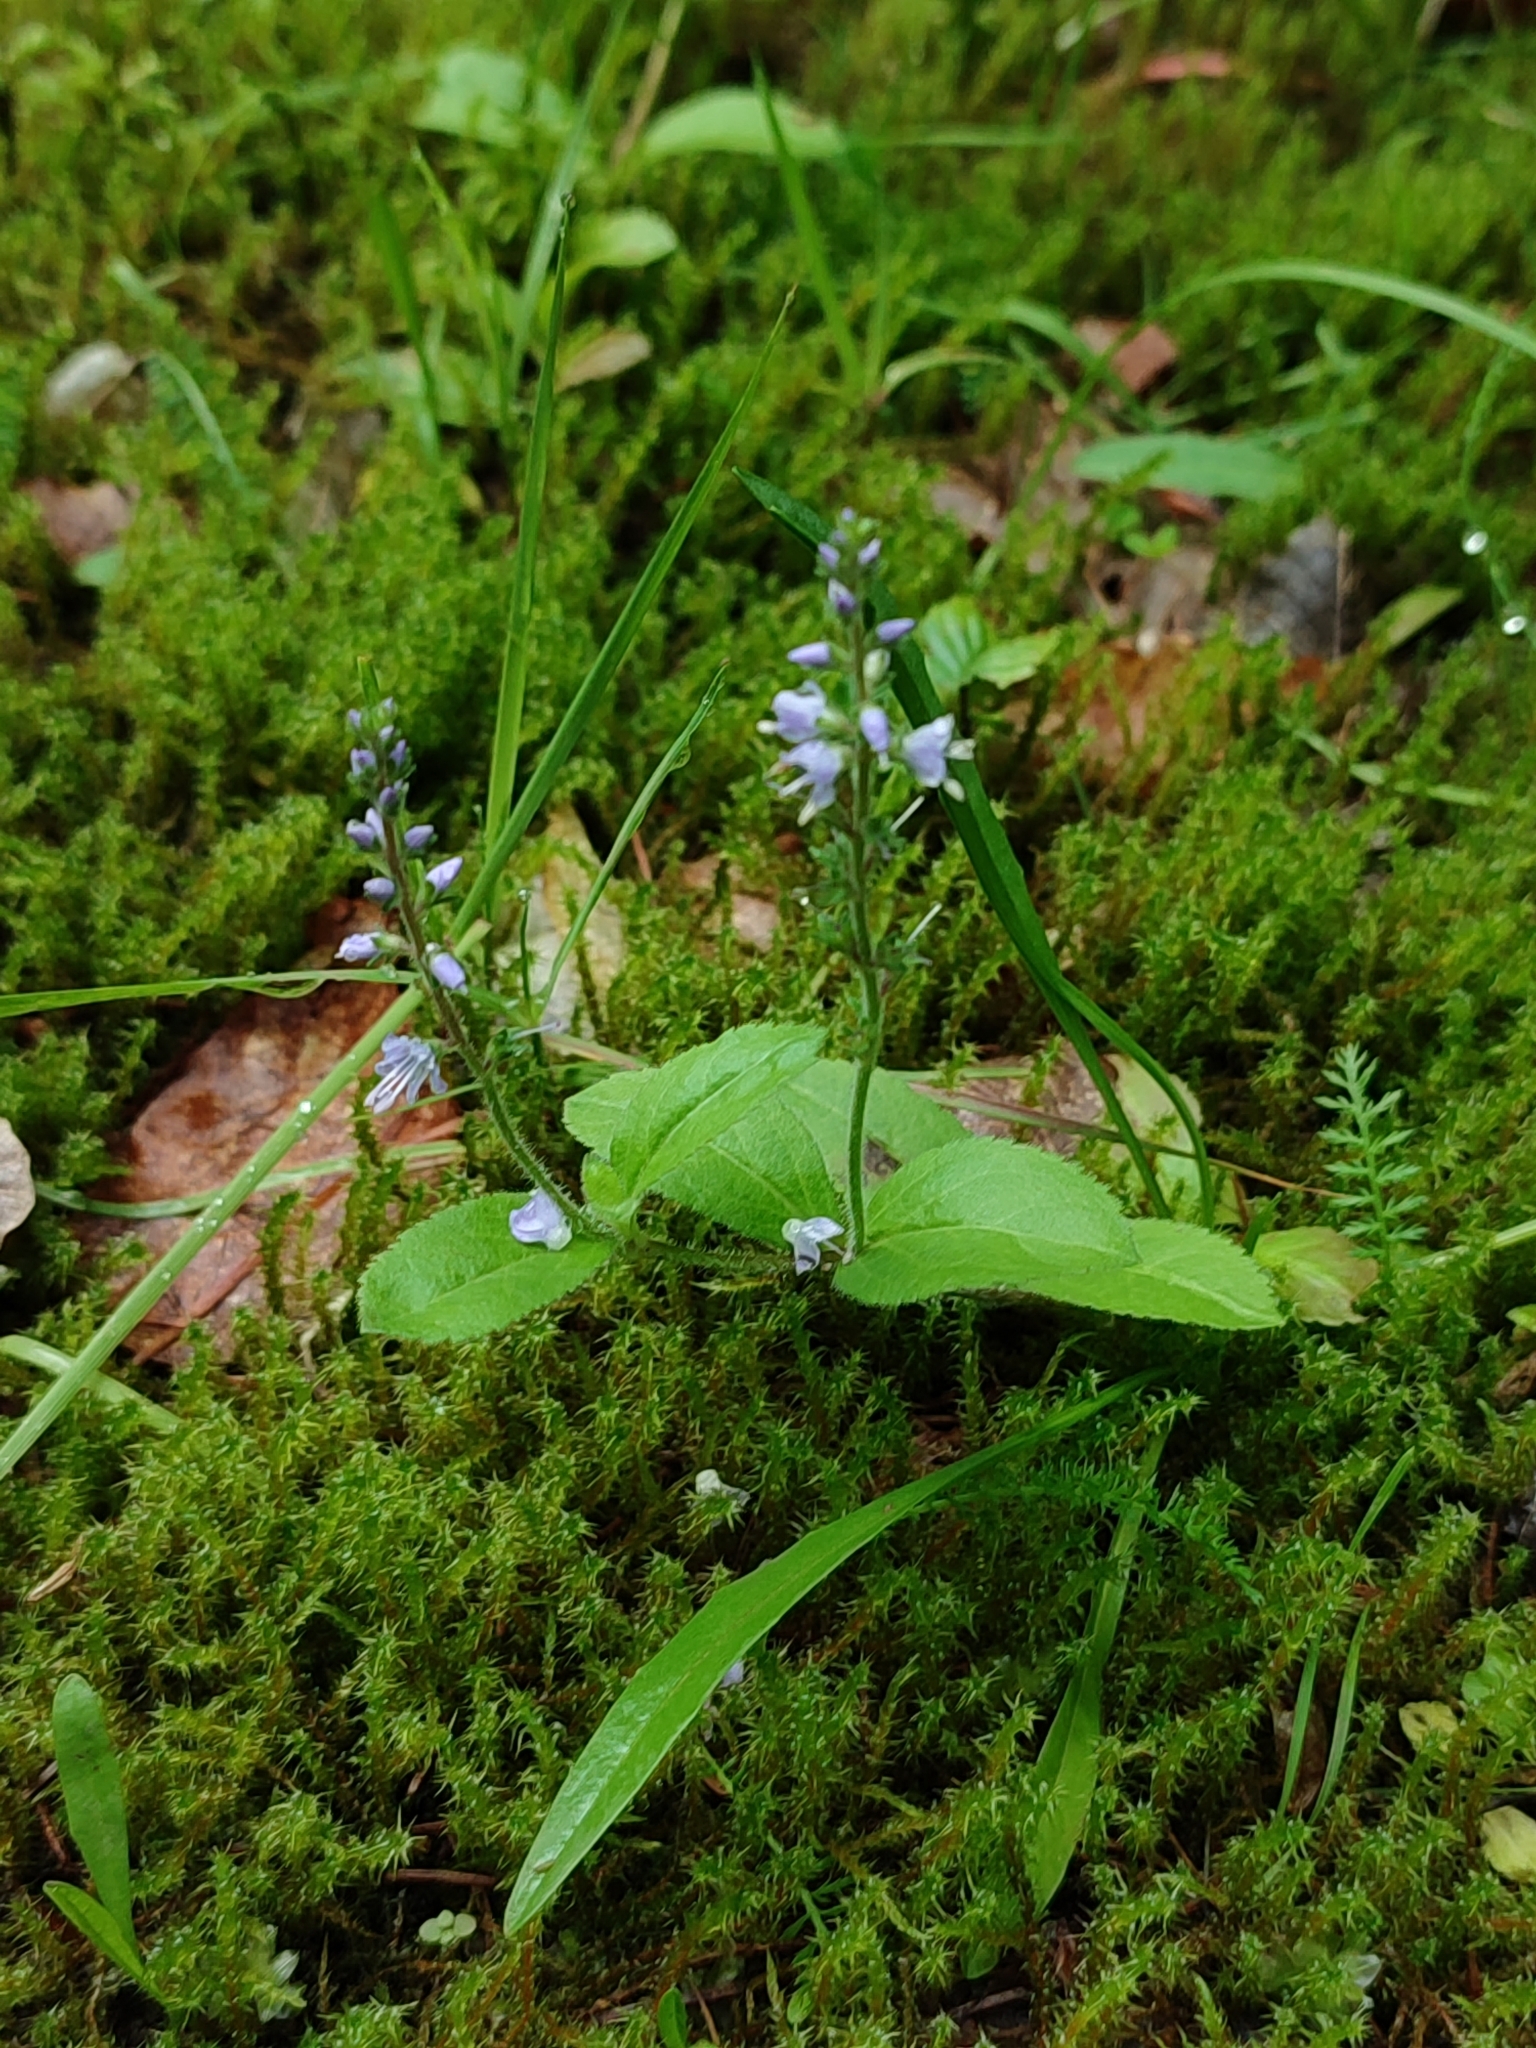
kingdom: Plantae
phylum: Tracheophyta
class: Magnoliopsida
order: Lamiales
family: Plantaginaceae
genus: Veronica
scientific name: Veronica officinalis
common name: Common speedwell
